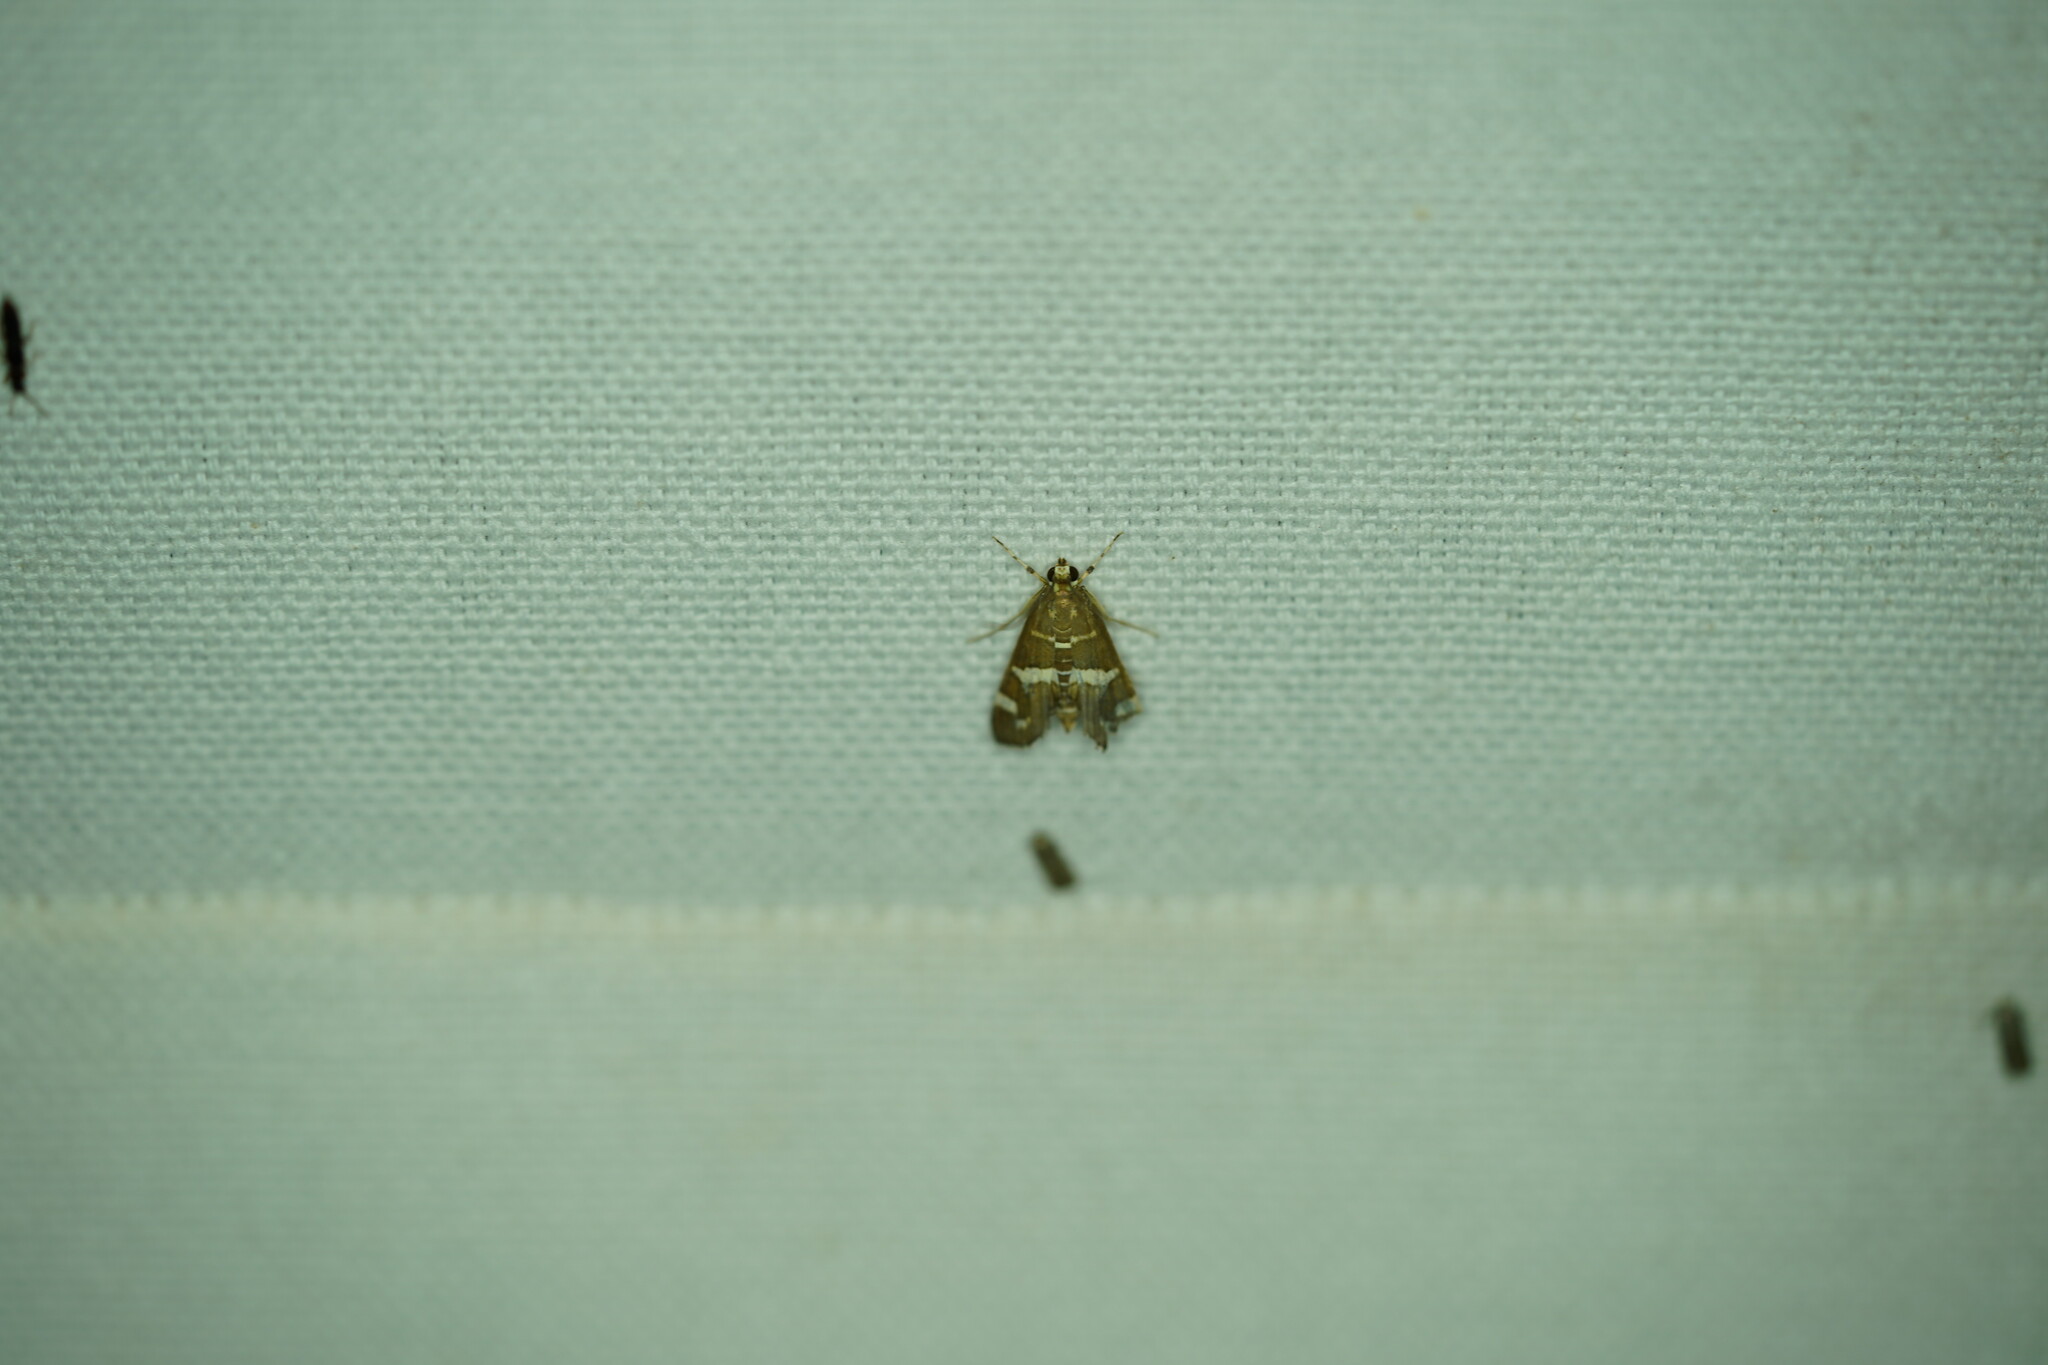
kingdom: Animalia
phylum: Arthropoda
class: Insecta
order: Lepidoptera
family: Crambidae
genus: Spoladea
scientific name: Spoladea recurvalis
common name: Beet webworm moth
